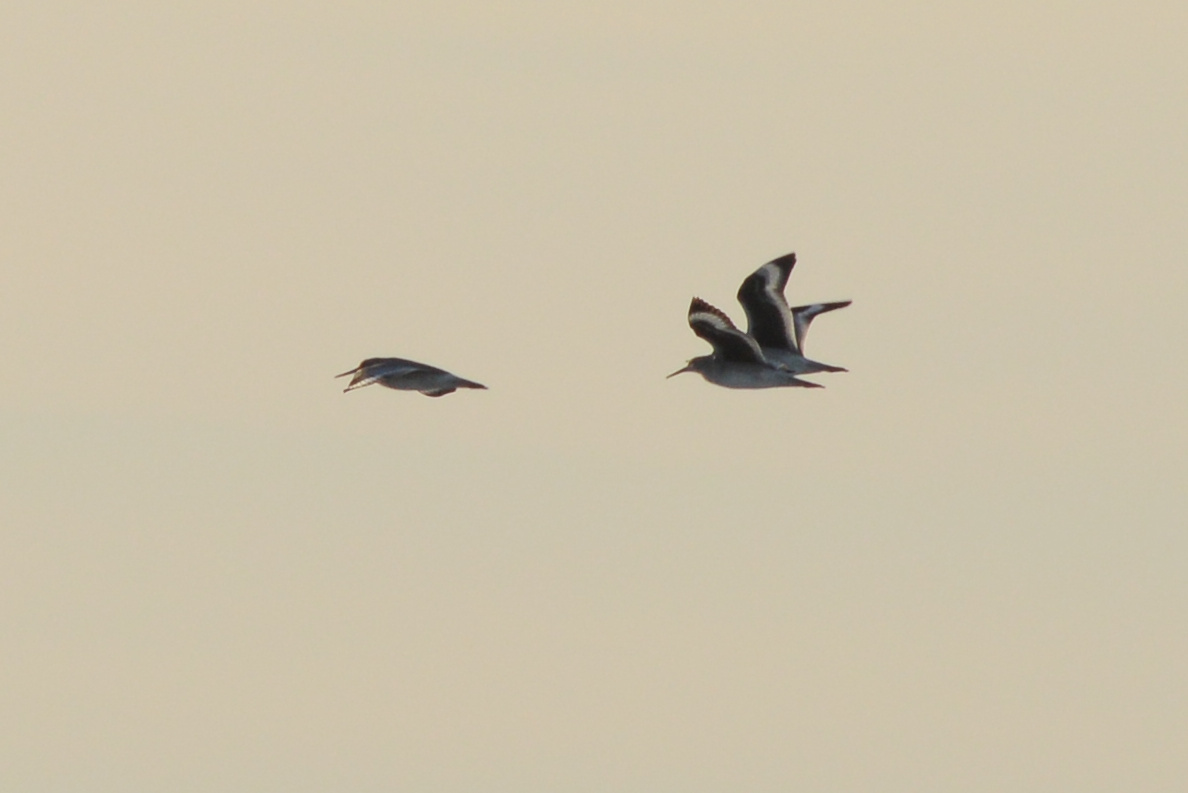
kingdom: Animalia
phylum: Chordata
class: Aves
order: Charadriiformes
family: Scolopacidae
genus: Tringa
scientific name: Tringa semipalmata
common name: Willet
